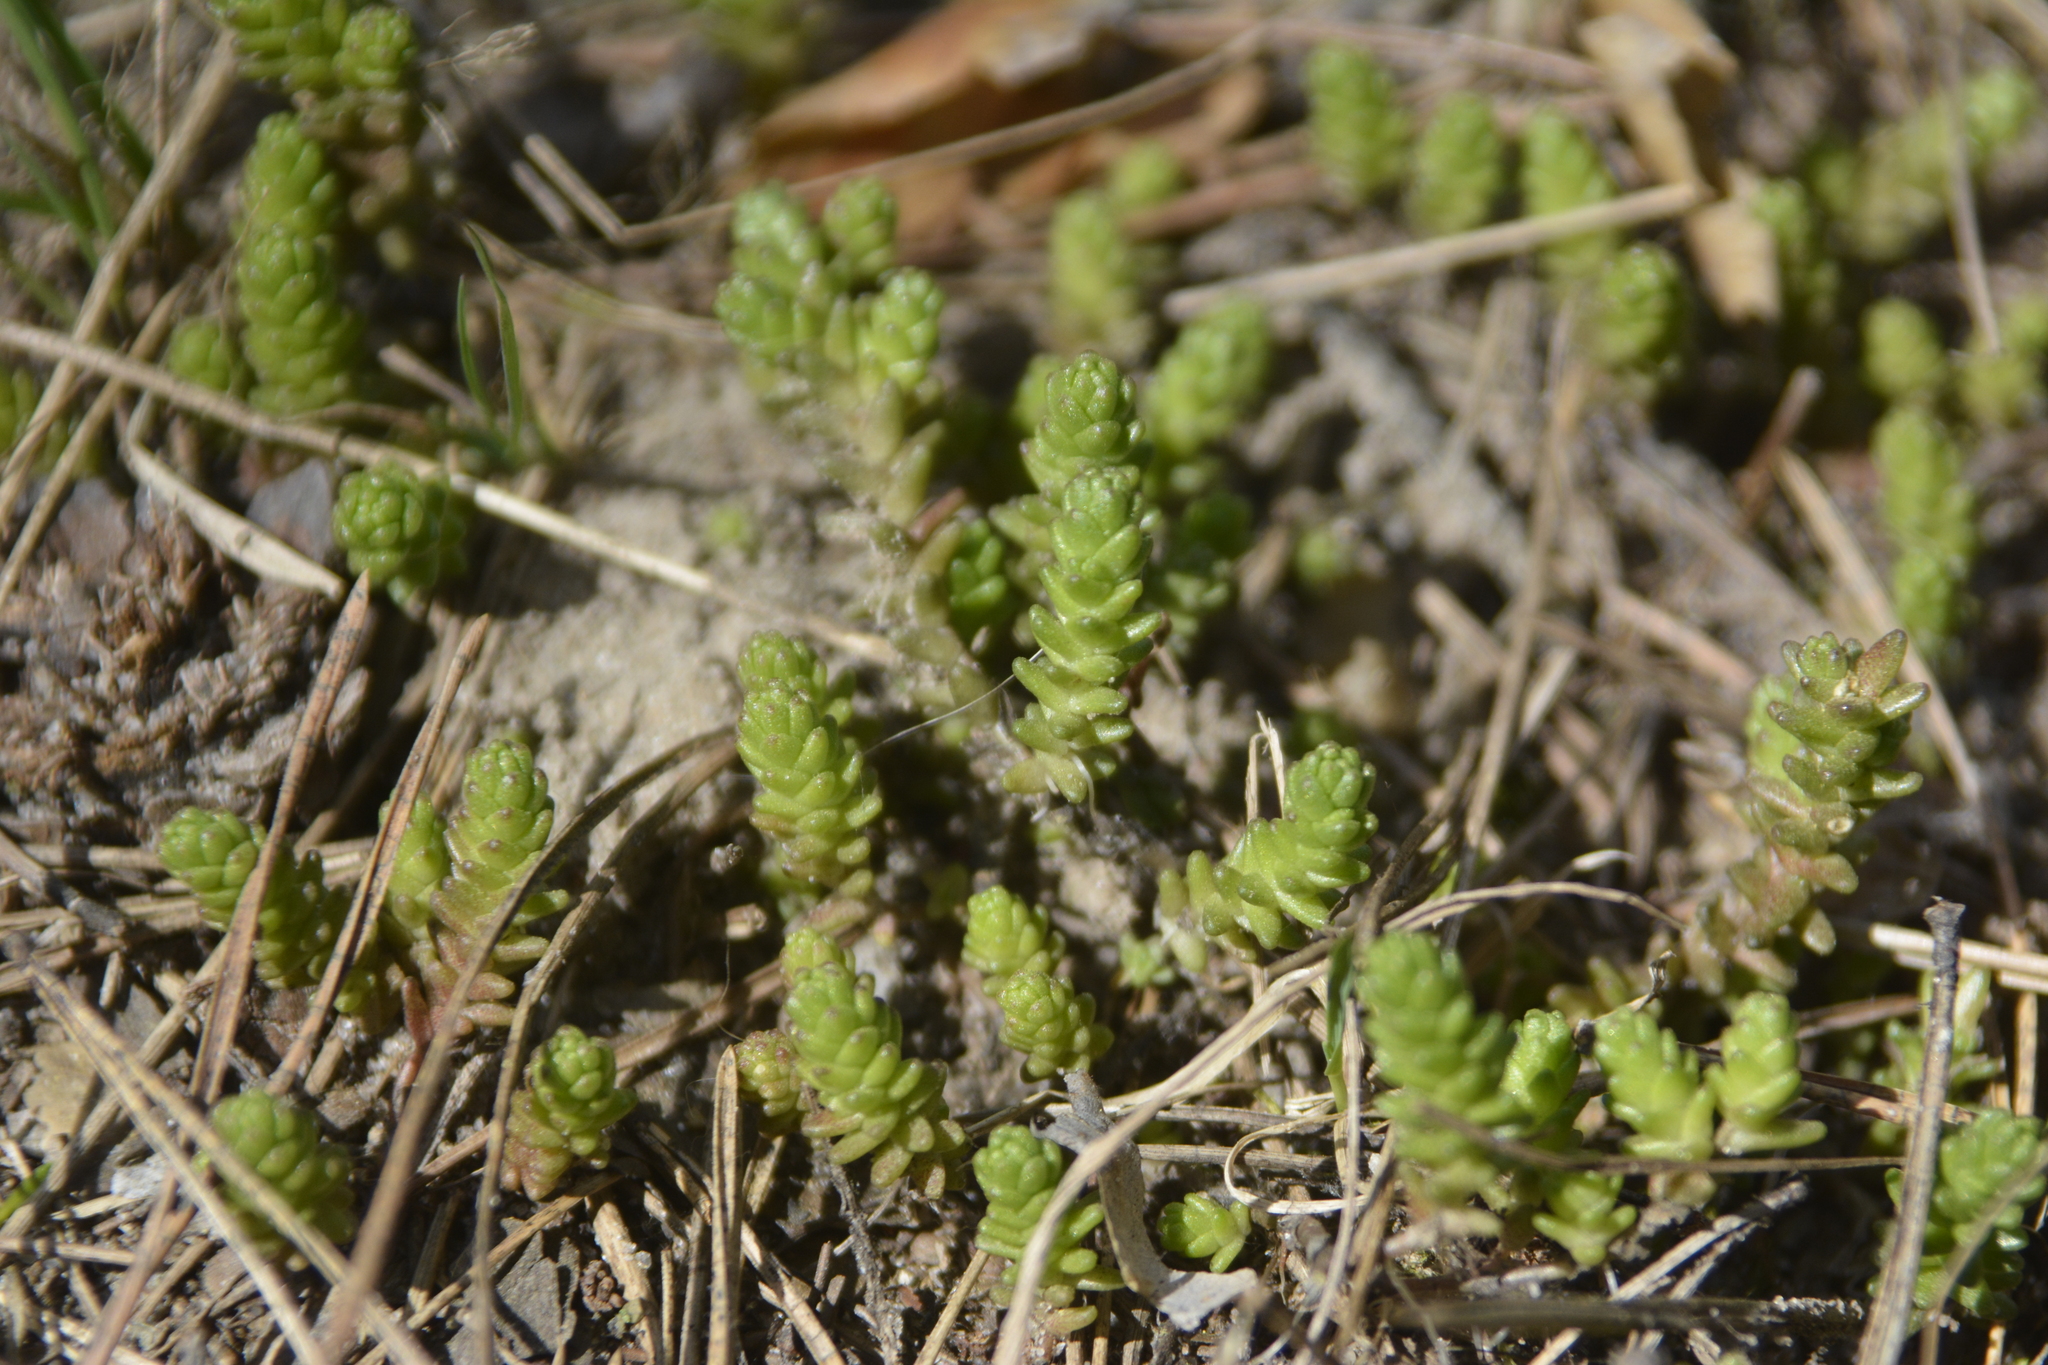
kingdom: Plantae
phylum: Tracheophyta
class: Magnoliopsida
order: Saxifragales
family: Crassulaceae
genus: Sedum
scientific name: Sedum acre
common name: Biting stonecrop
